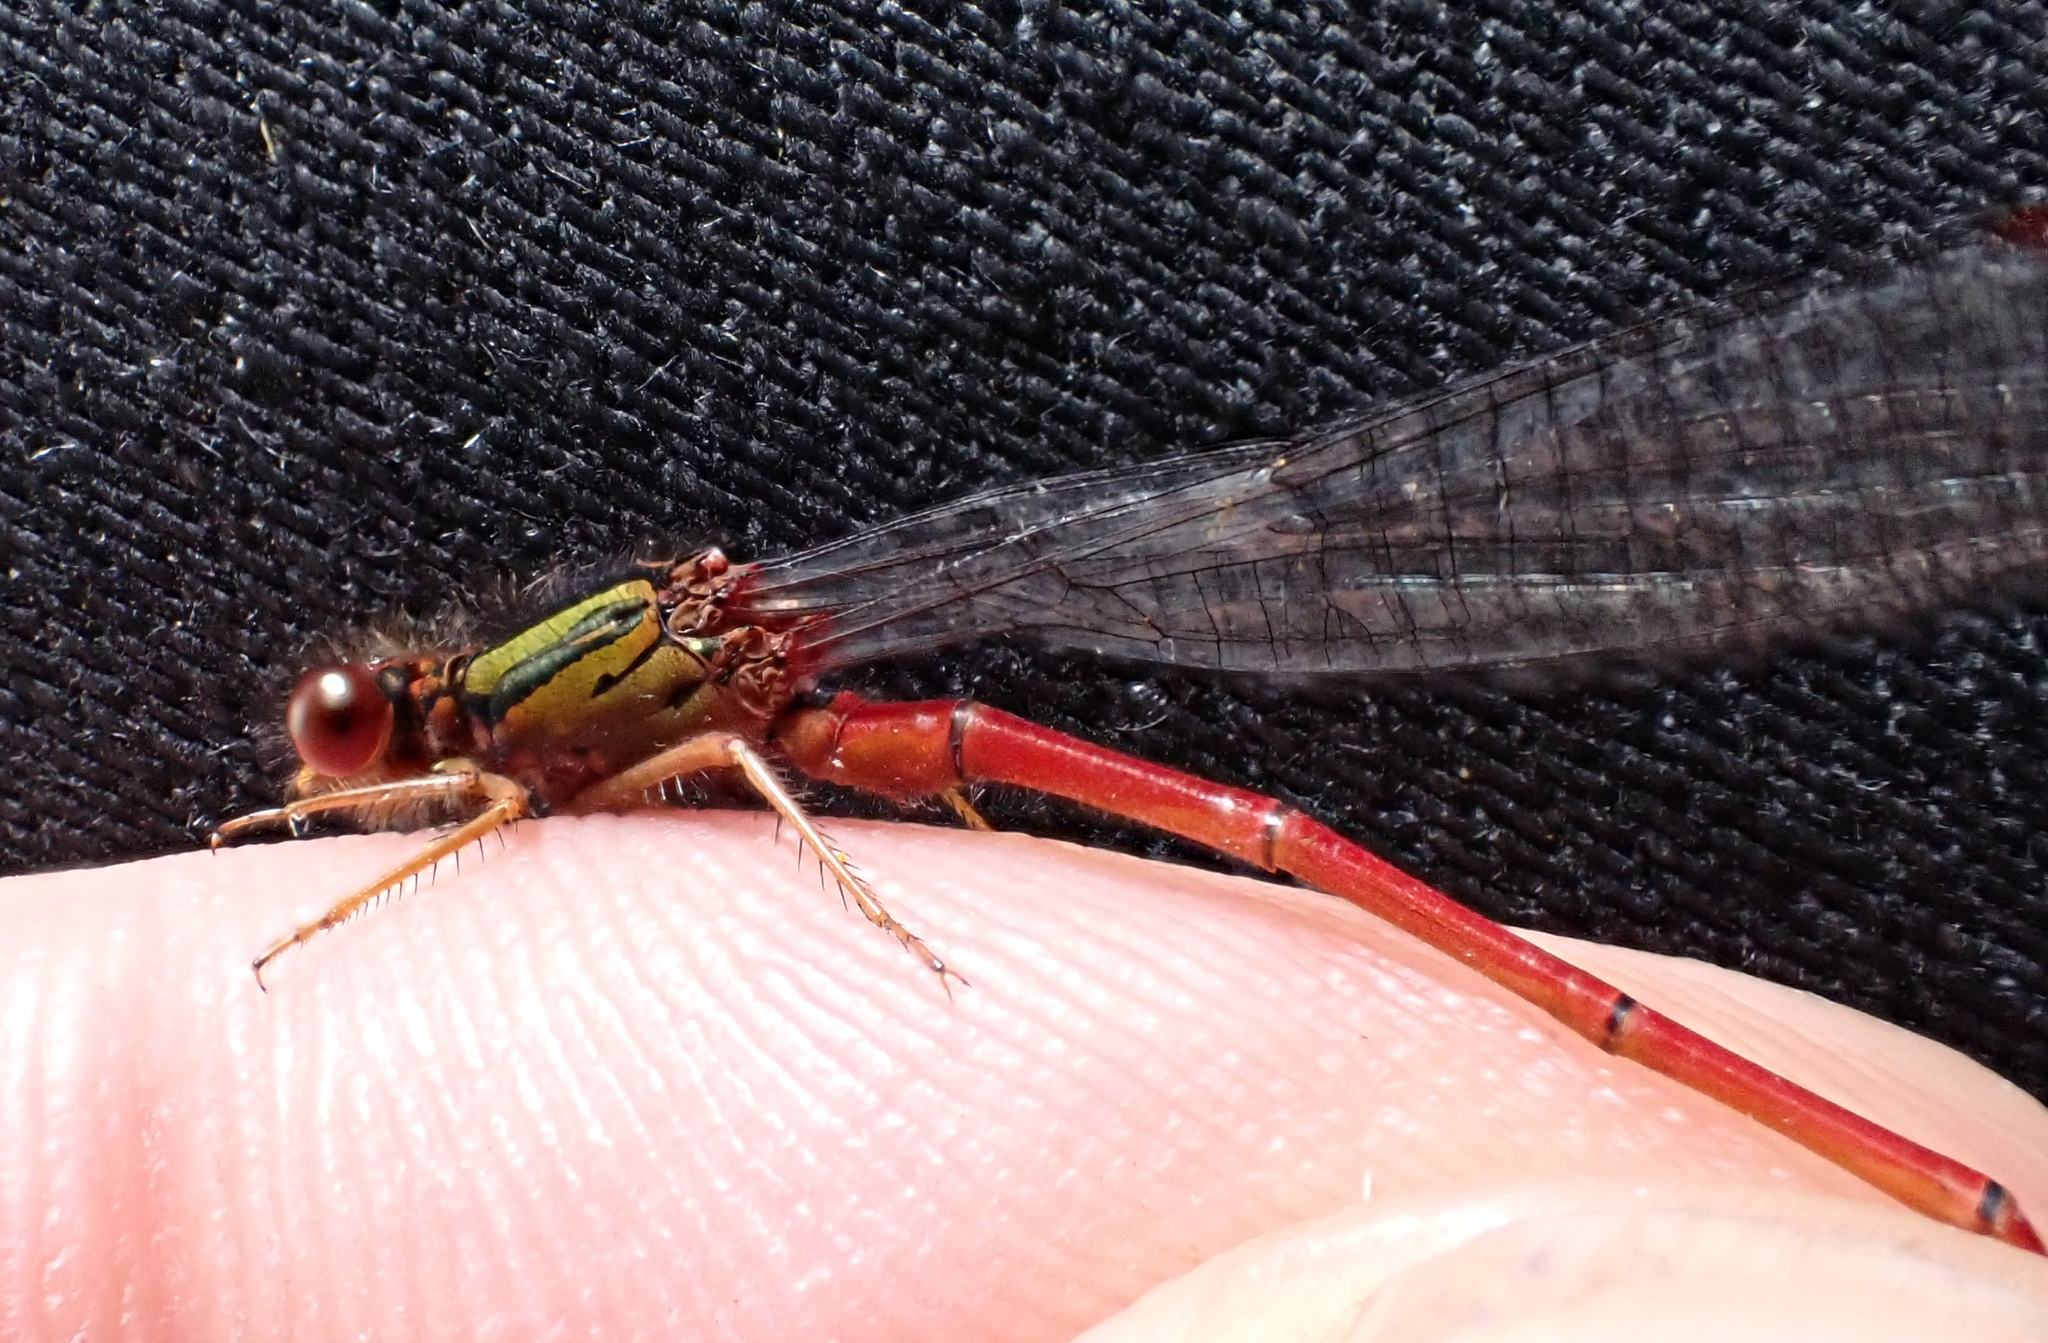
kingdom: Animalia
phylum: Arthropoda
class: Insecta
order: Odonata
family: Coenagrionidae
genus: Xanthocnemis
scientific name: Xanthocnemis tuanuii
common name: Chatham redcoat damselfly
